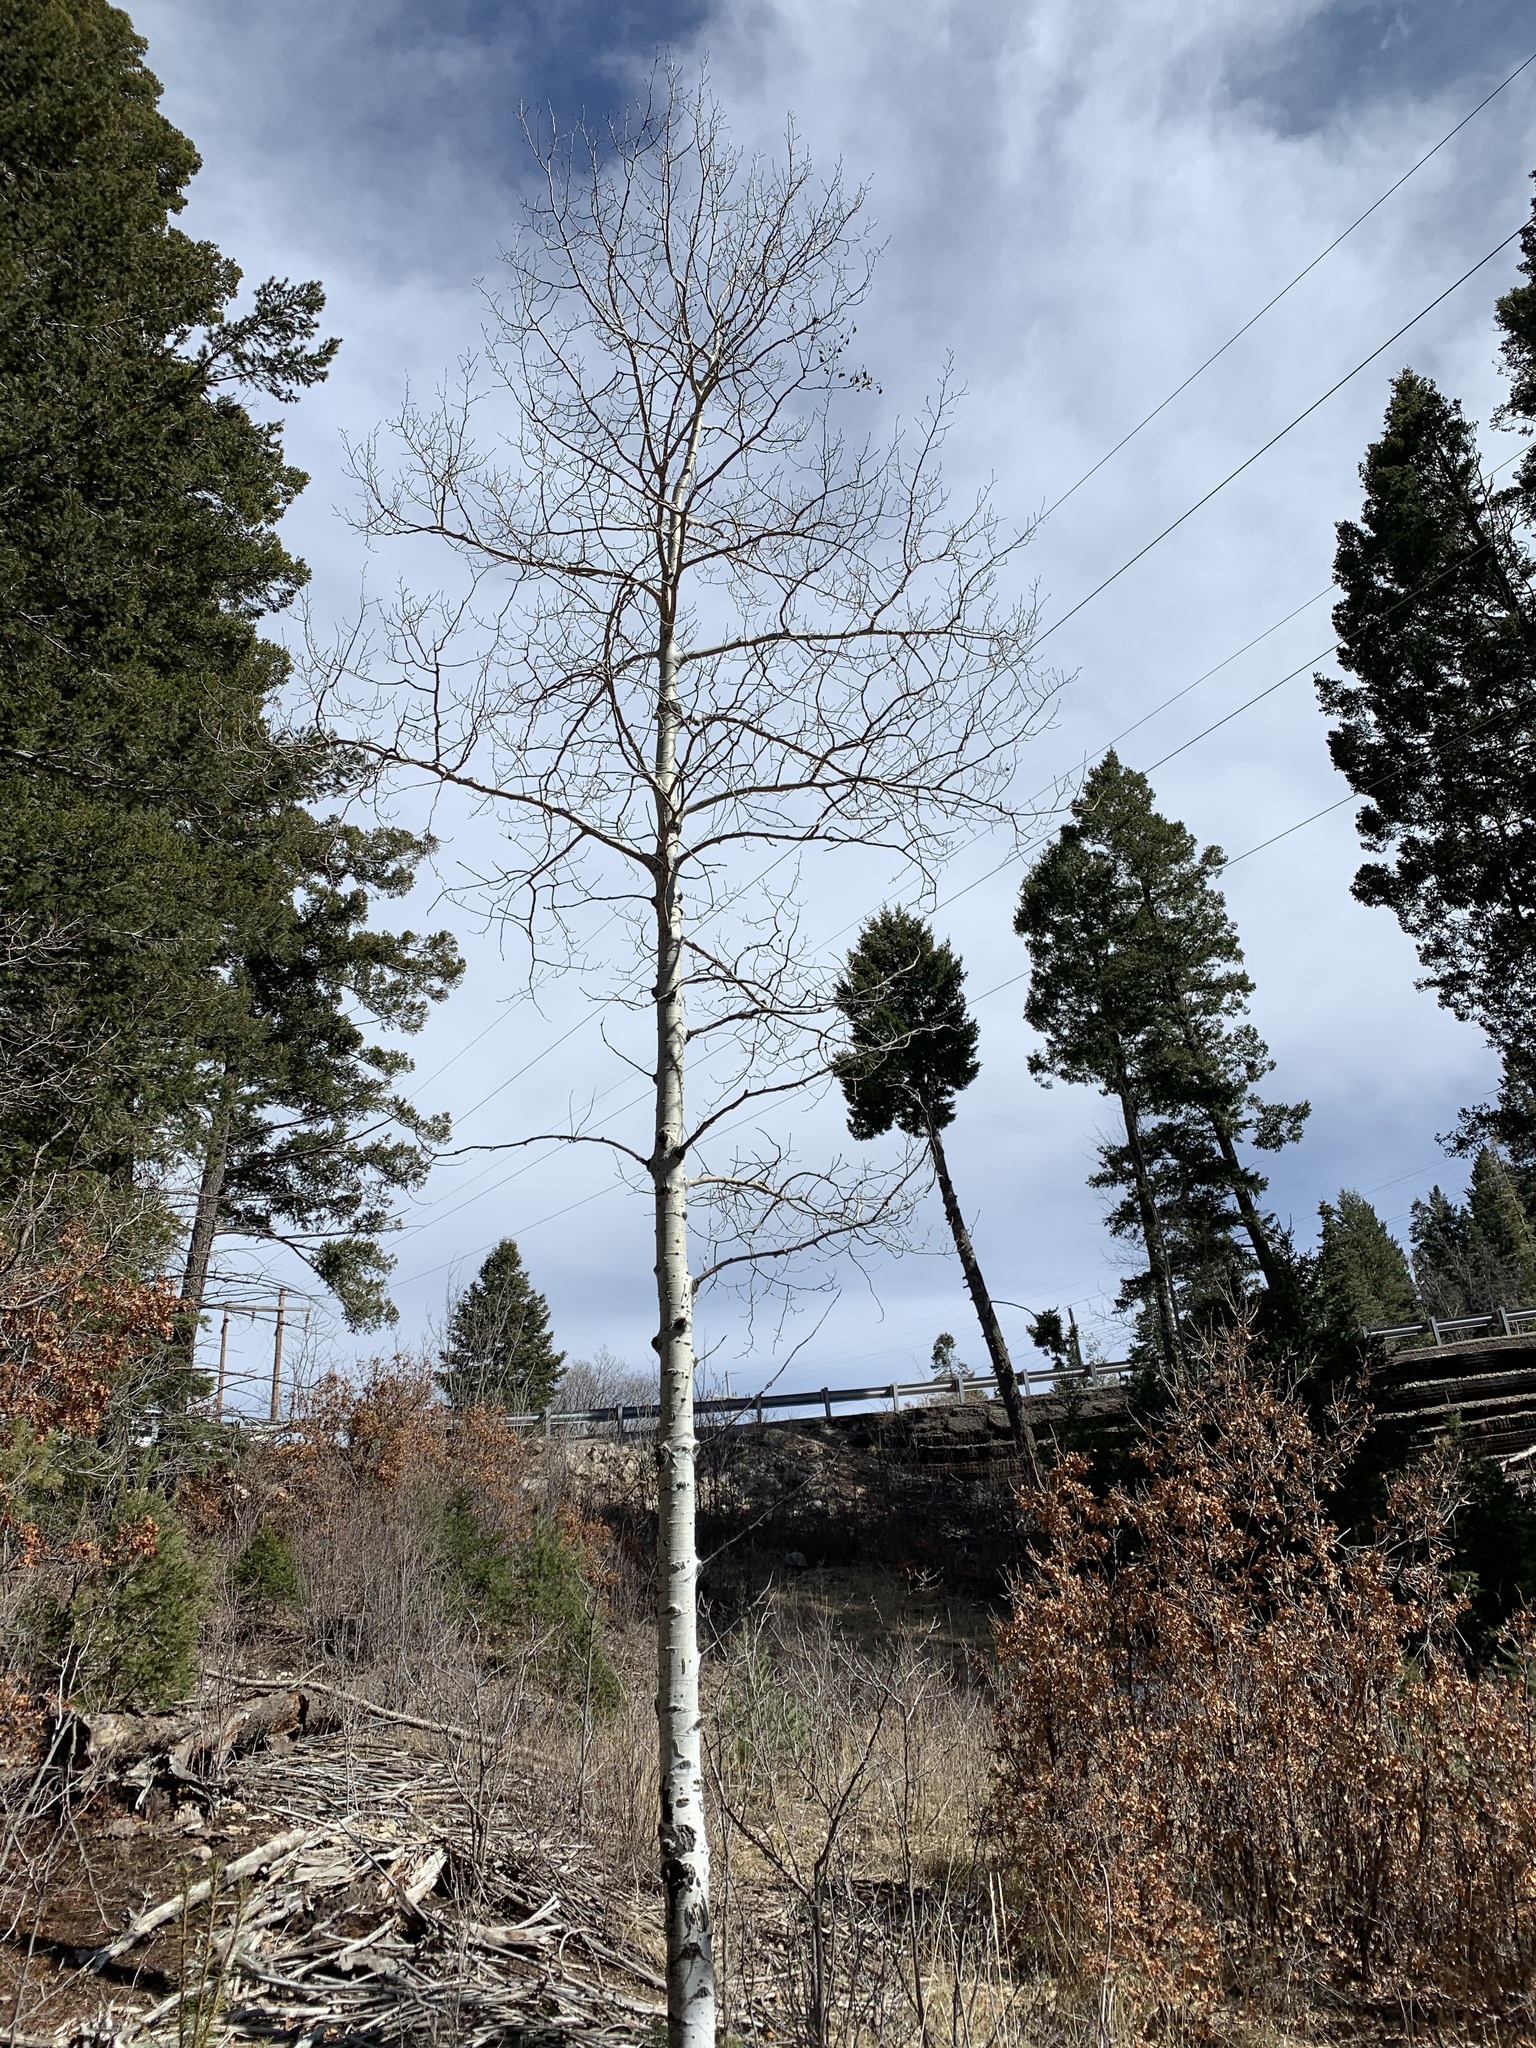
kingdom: Plantae
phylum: Tracheophyta
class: Magnoliopsida
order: Malpighiales
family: Salicaceae
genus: Populus
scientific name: Populus tremuloides
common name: Quaking aspen
